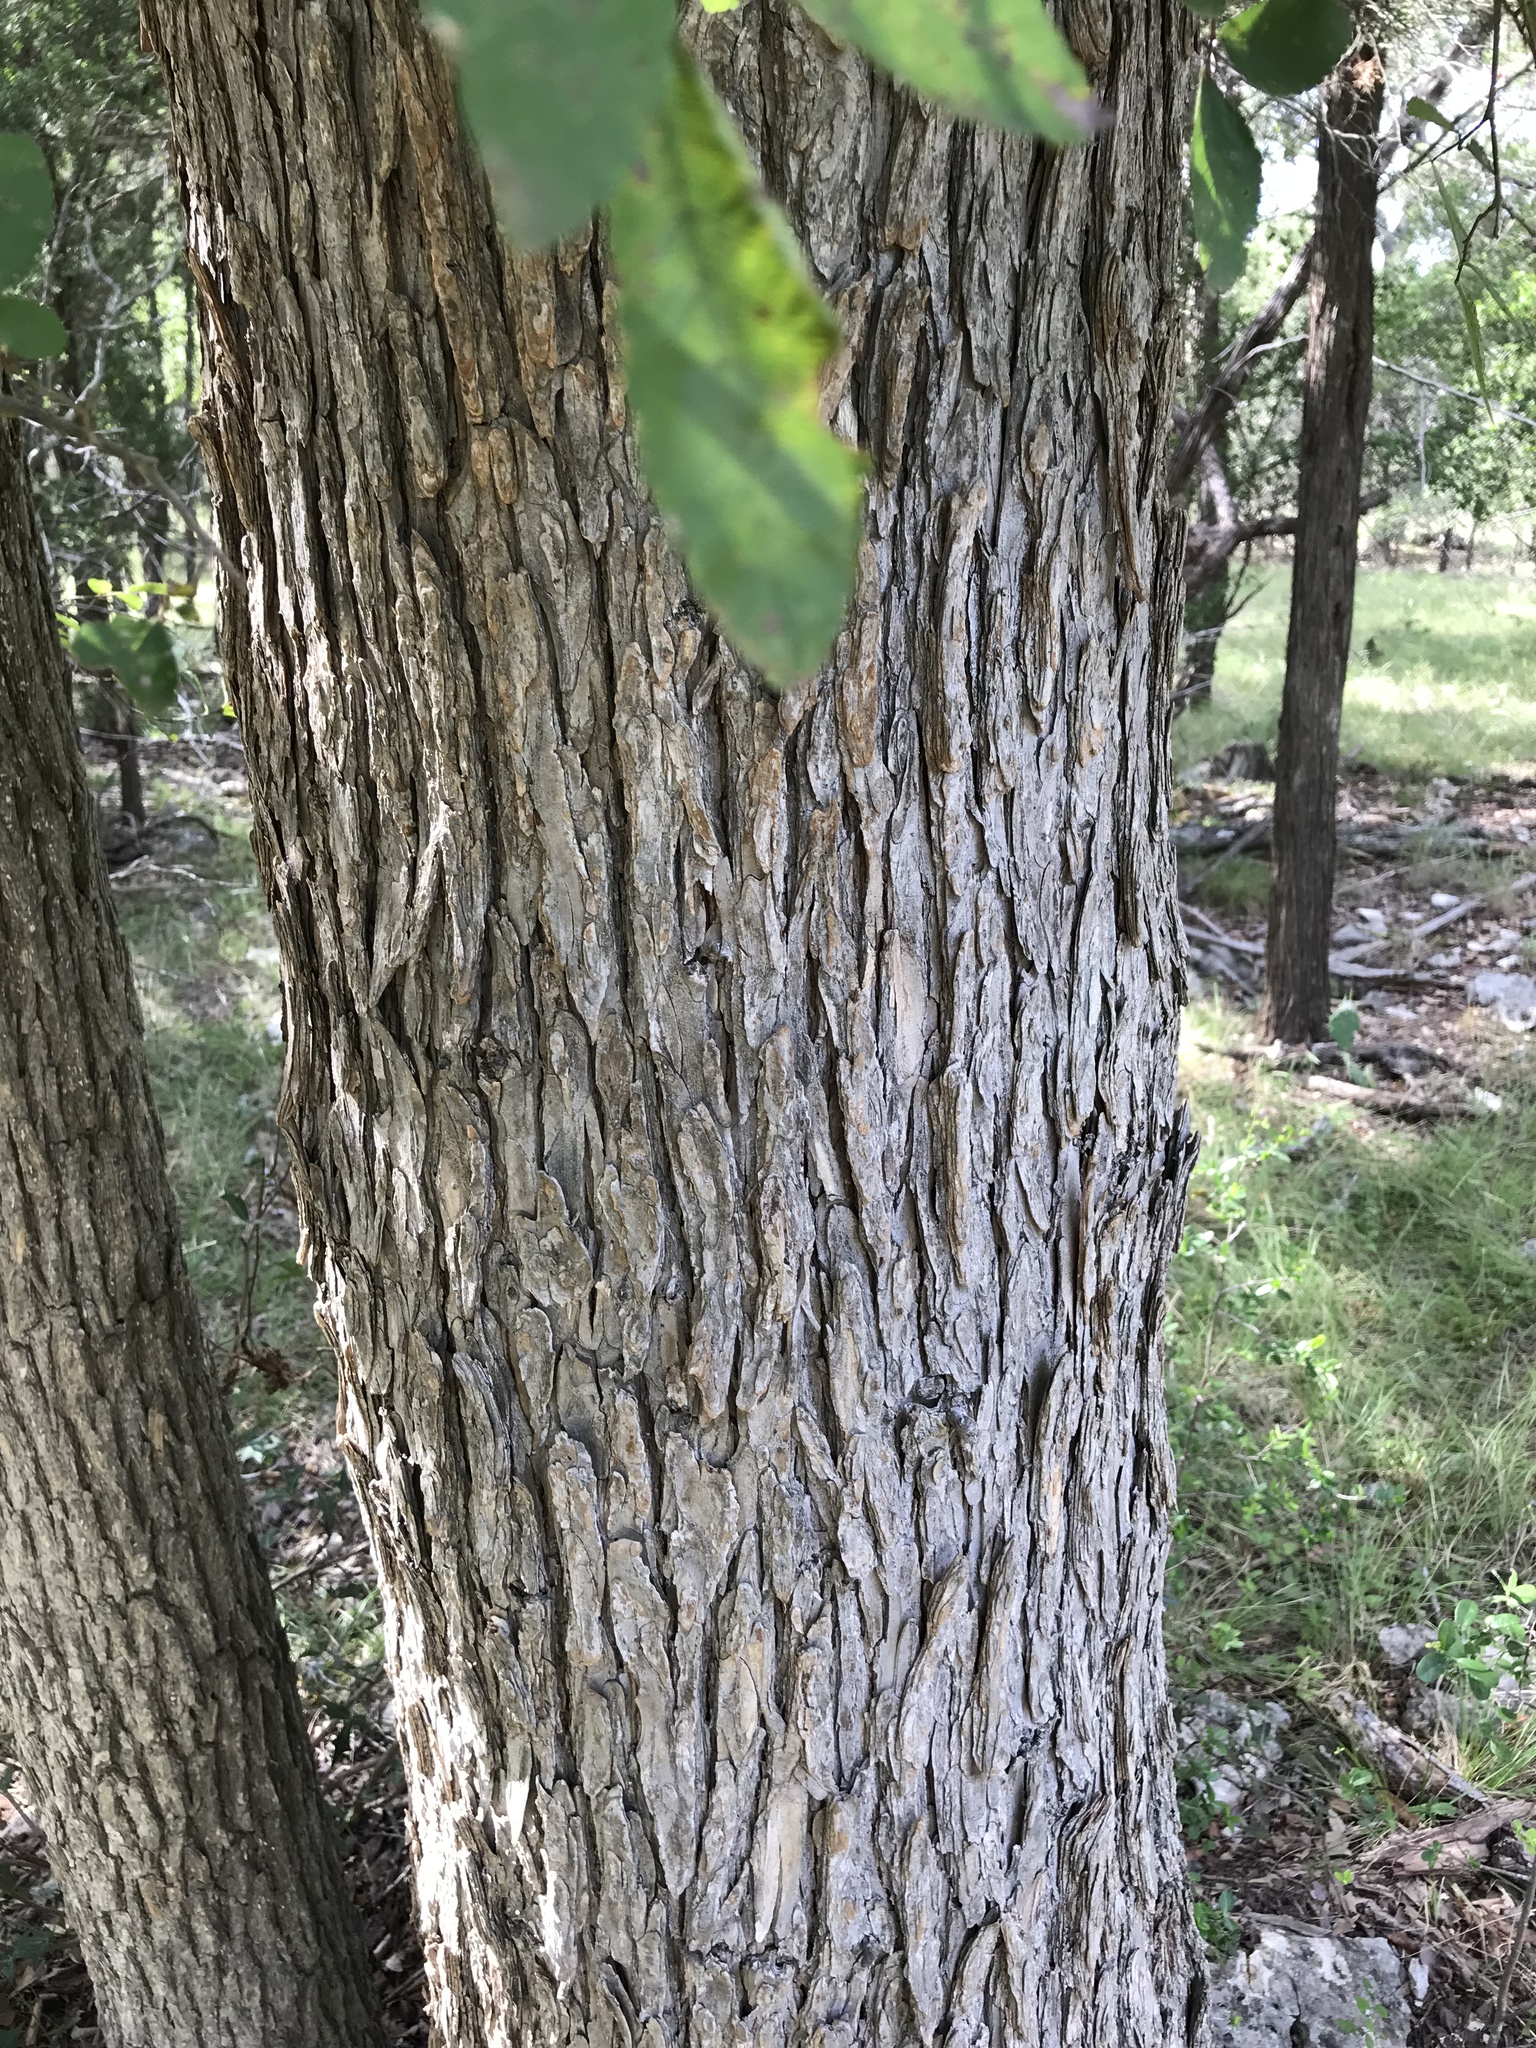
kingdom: Plantae
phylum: Tracheophyta
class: Magnoliopsida
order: Rosales
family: Ulmaceae
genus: Ulmus
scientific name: Ulmus crassifolia
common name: Basket elm
